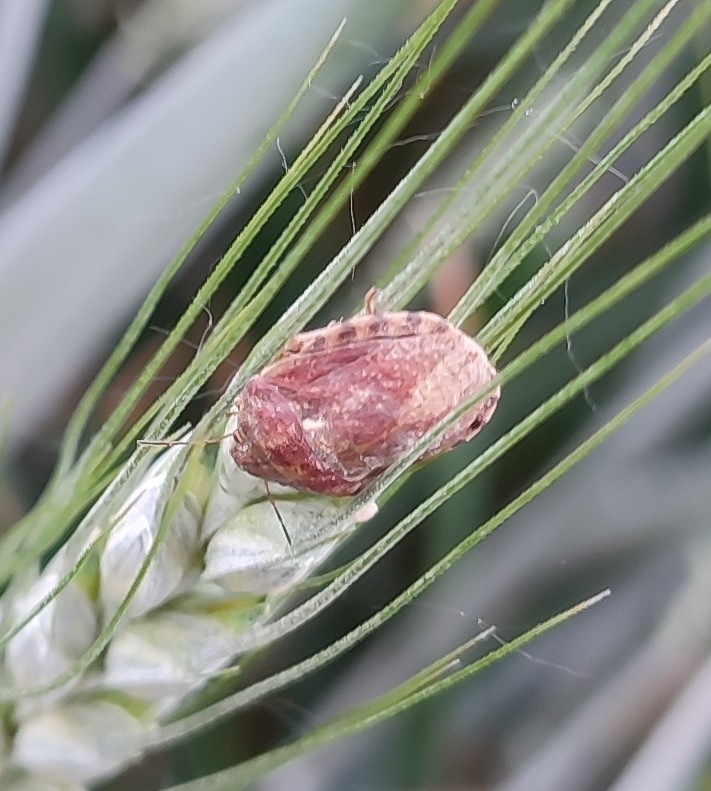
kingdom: Animalia
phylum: Arthropoda
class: Insecta
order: Hemiptera
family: Scutelleridae
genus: Eurygaster
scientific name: Eurygaster maura
